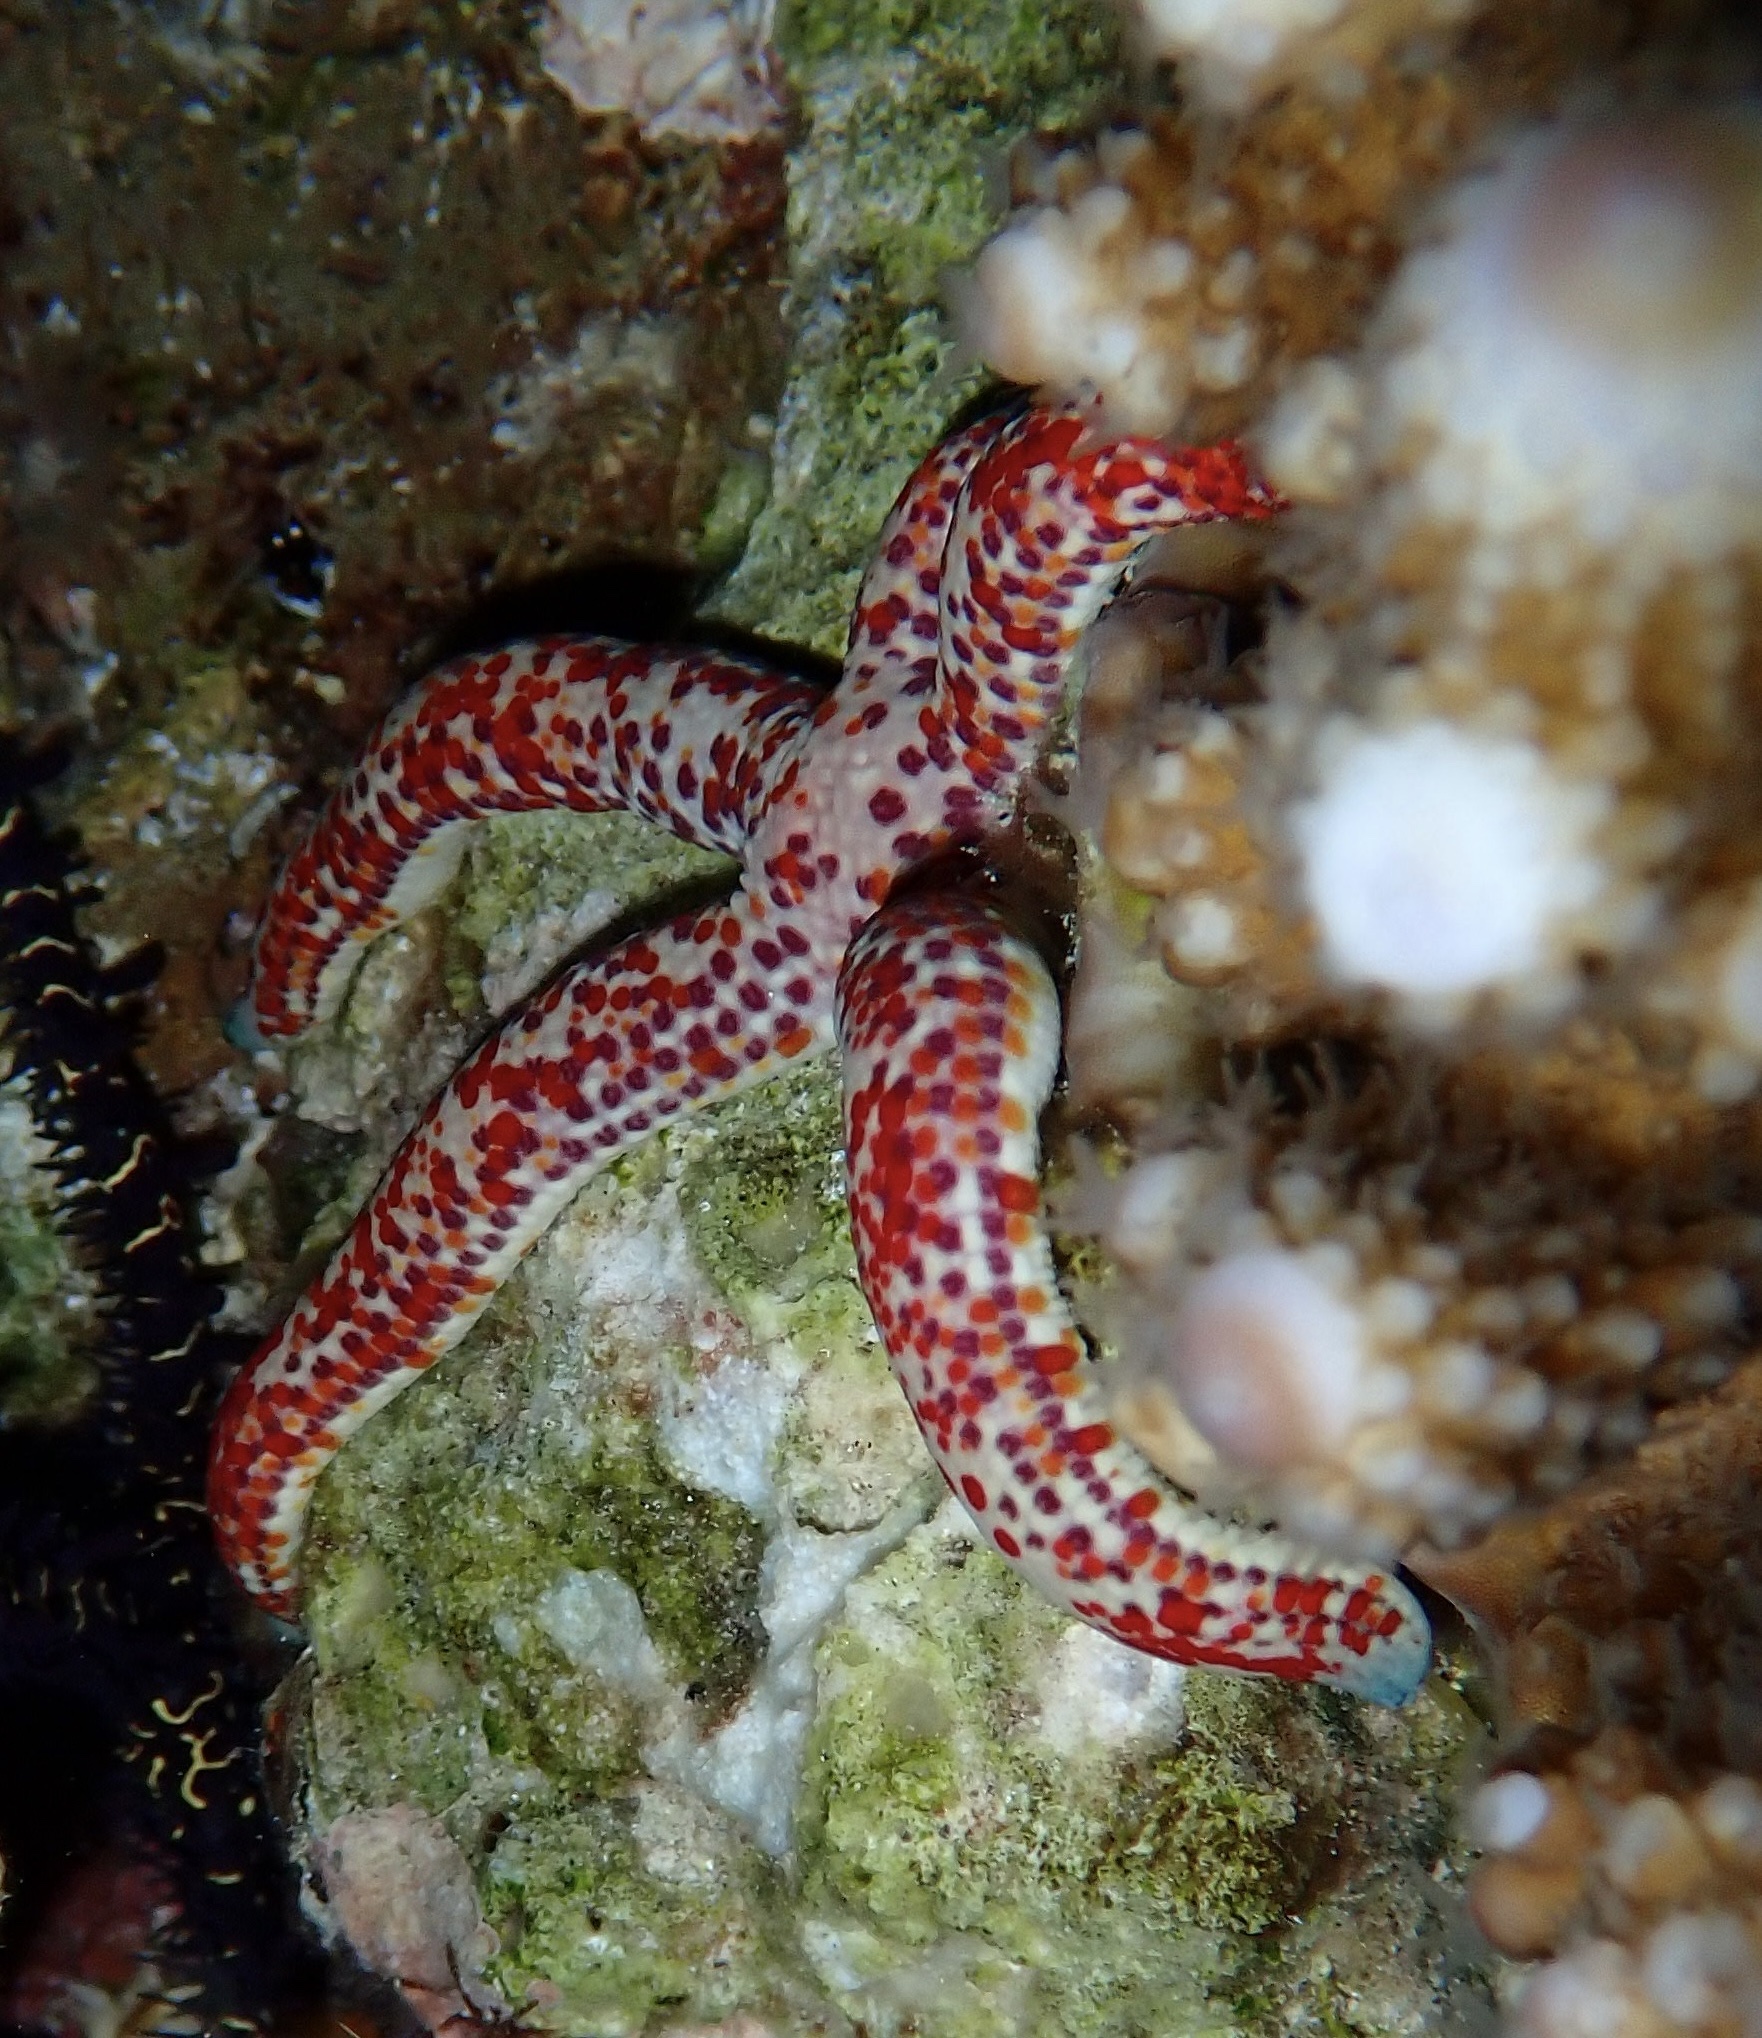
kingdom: Animalia
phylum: Echinodermata
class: Asteroidea
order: Valvatida
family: Ophidiasteridae
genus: Linckia
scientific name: Linckia multifora
